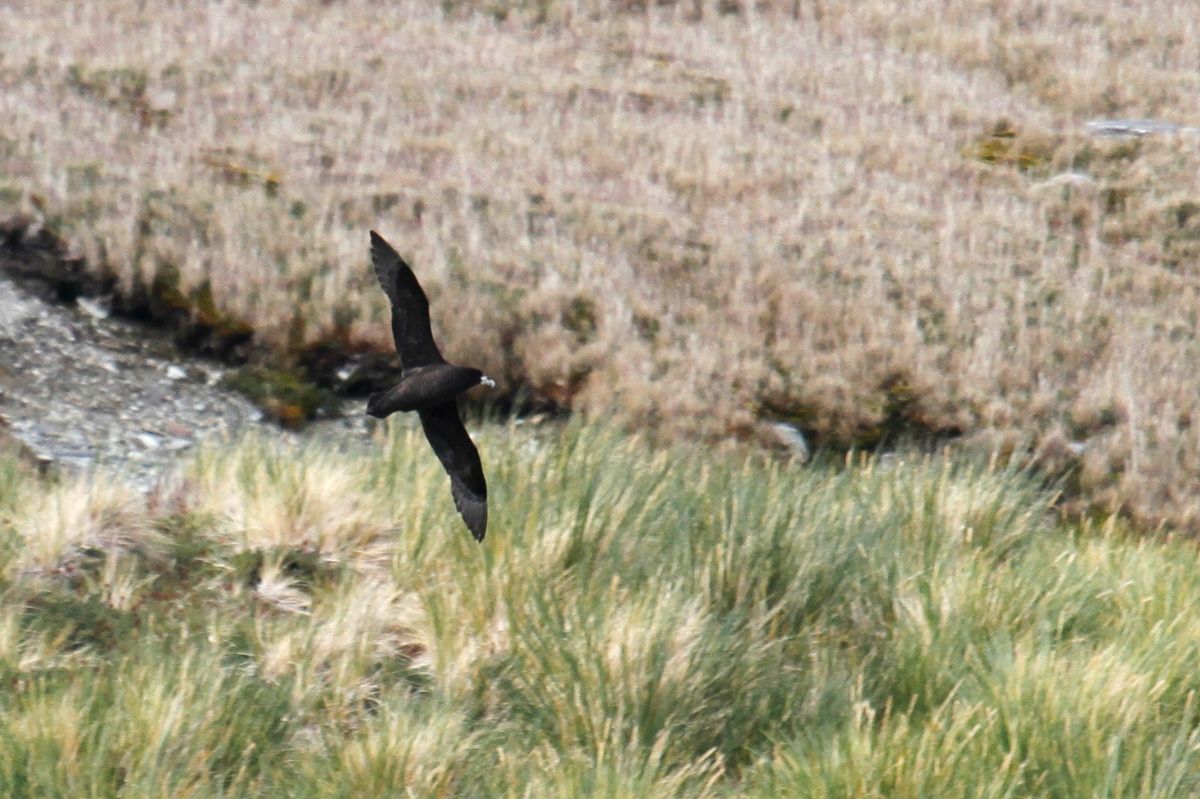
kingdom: Animalia
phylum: Chordata
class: Aves
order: Procellariiformes
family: Procellariidae
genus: Procellaria
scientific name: Procellaria aequinoctialis
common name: White-chinned petrel
